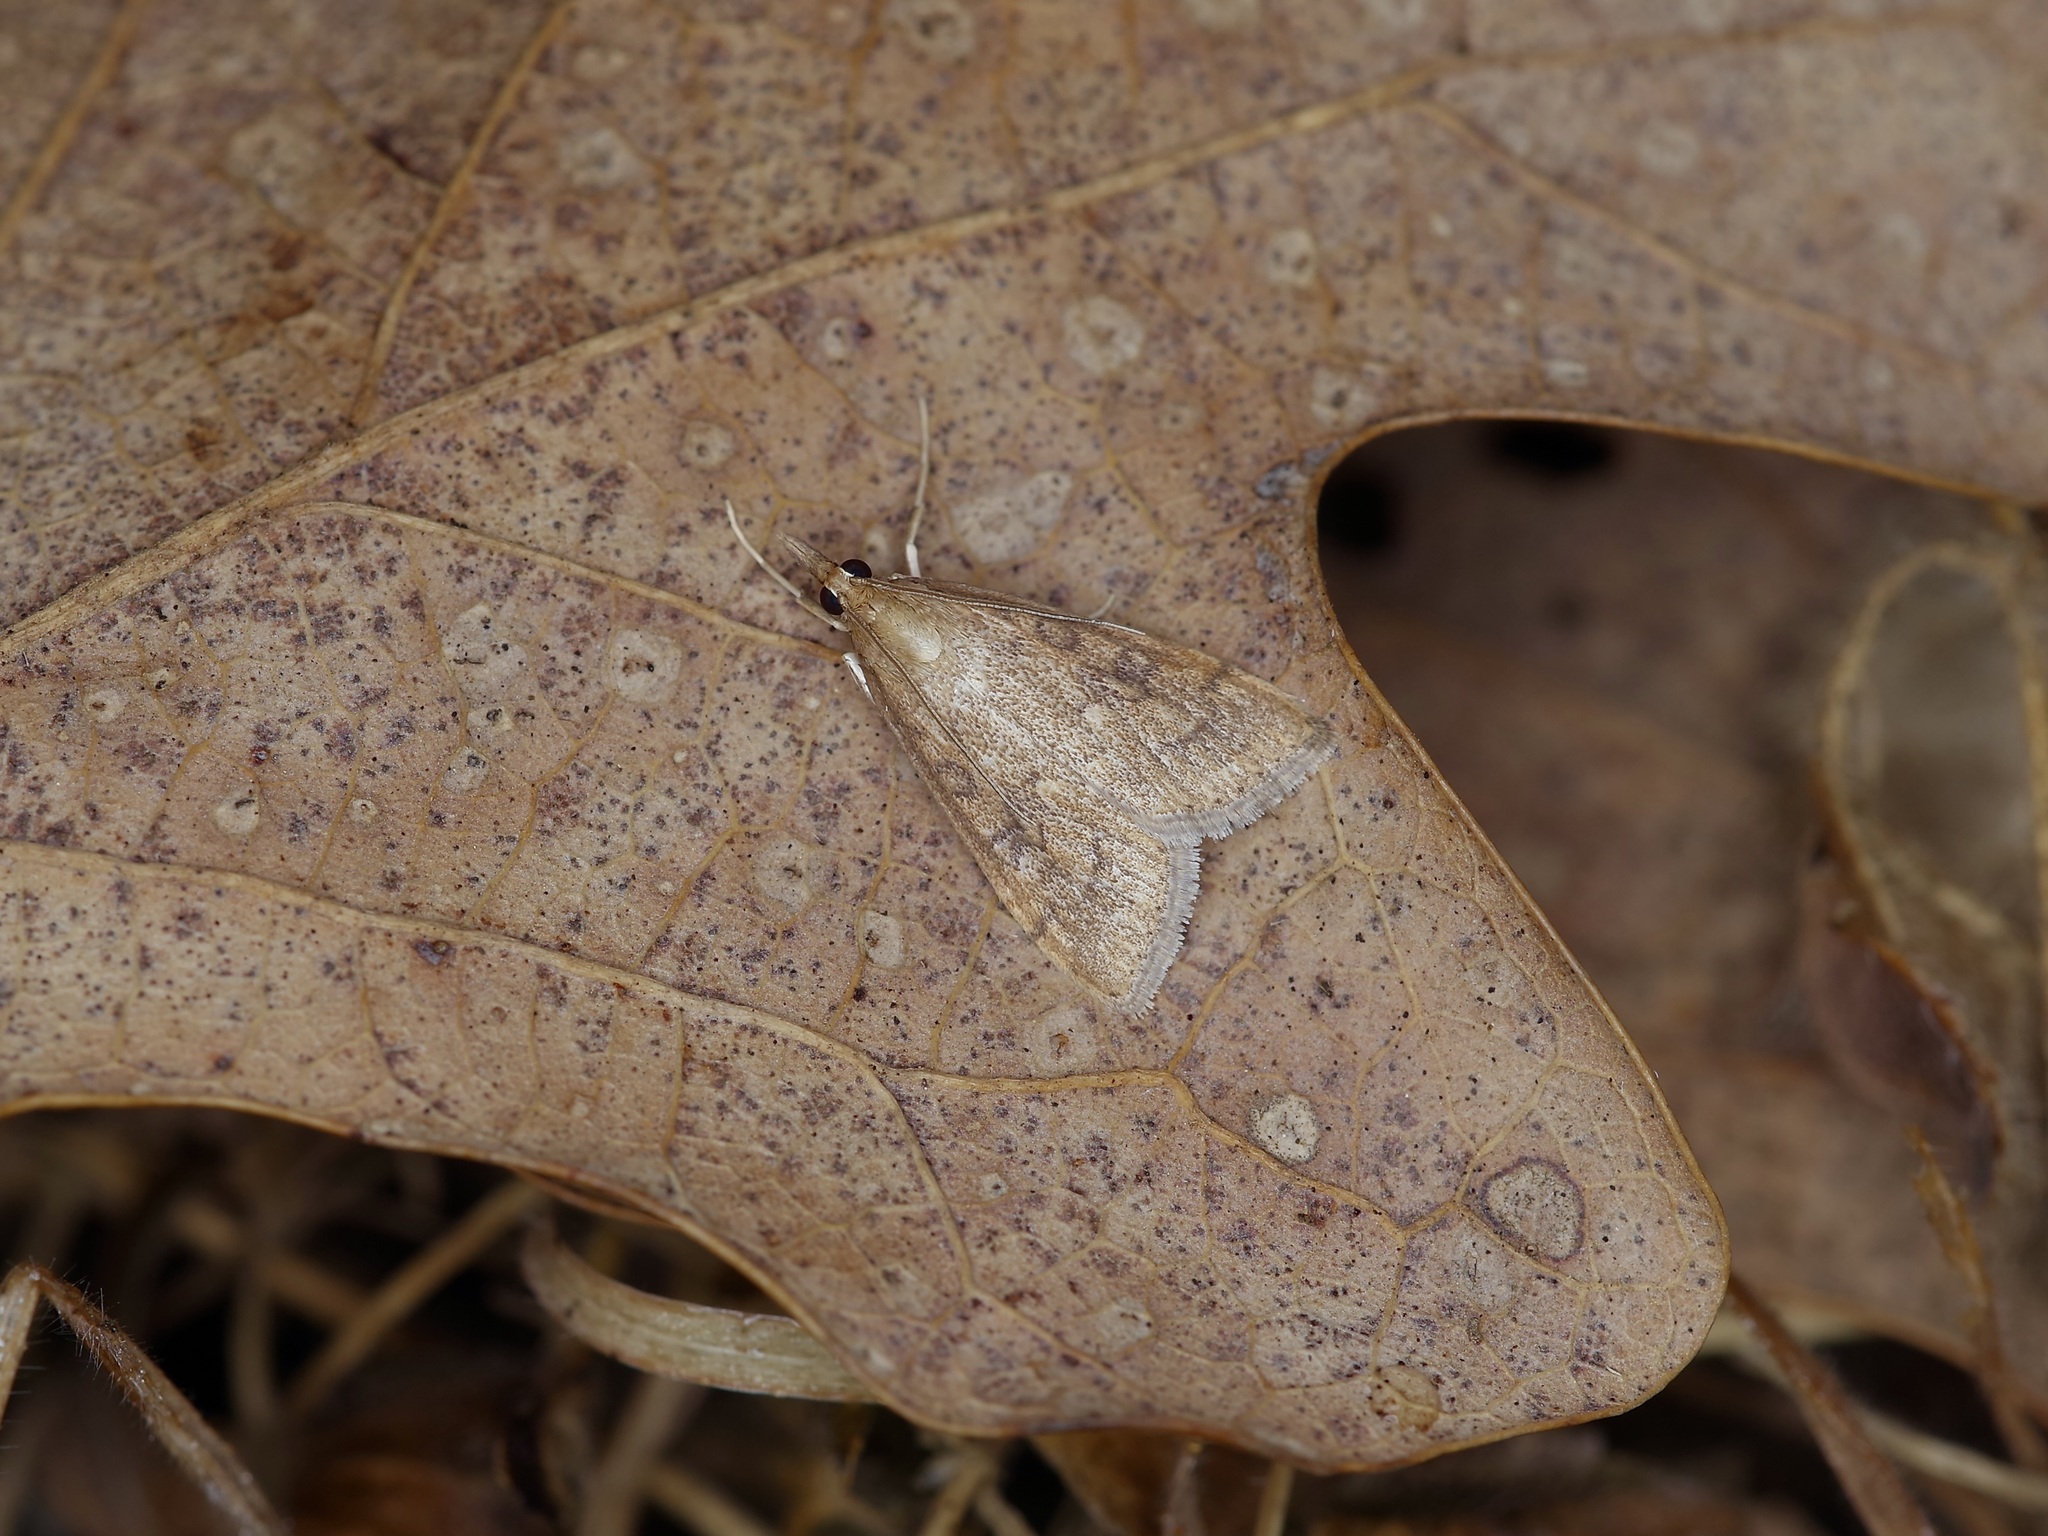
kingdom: Animalia
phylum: Arthropoda
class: Insecta
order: Lepidoptera
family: Crambidae
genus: Udea
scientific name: Udea rubigalis
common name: Celery leaftier moth
